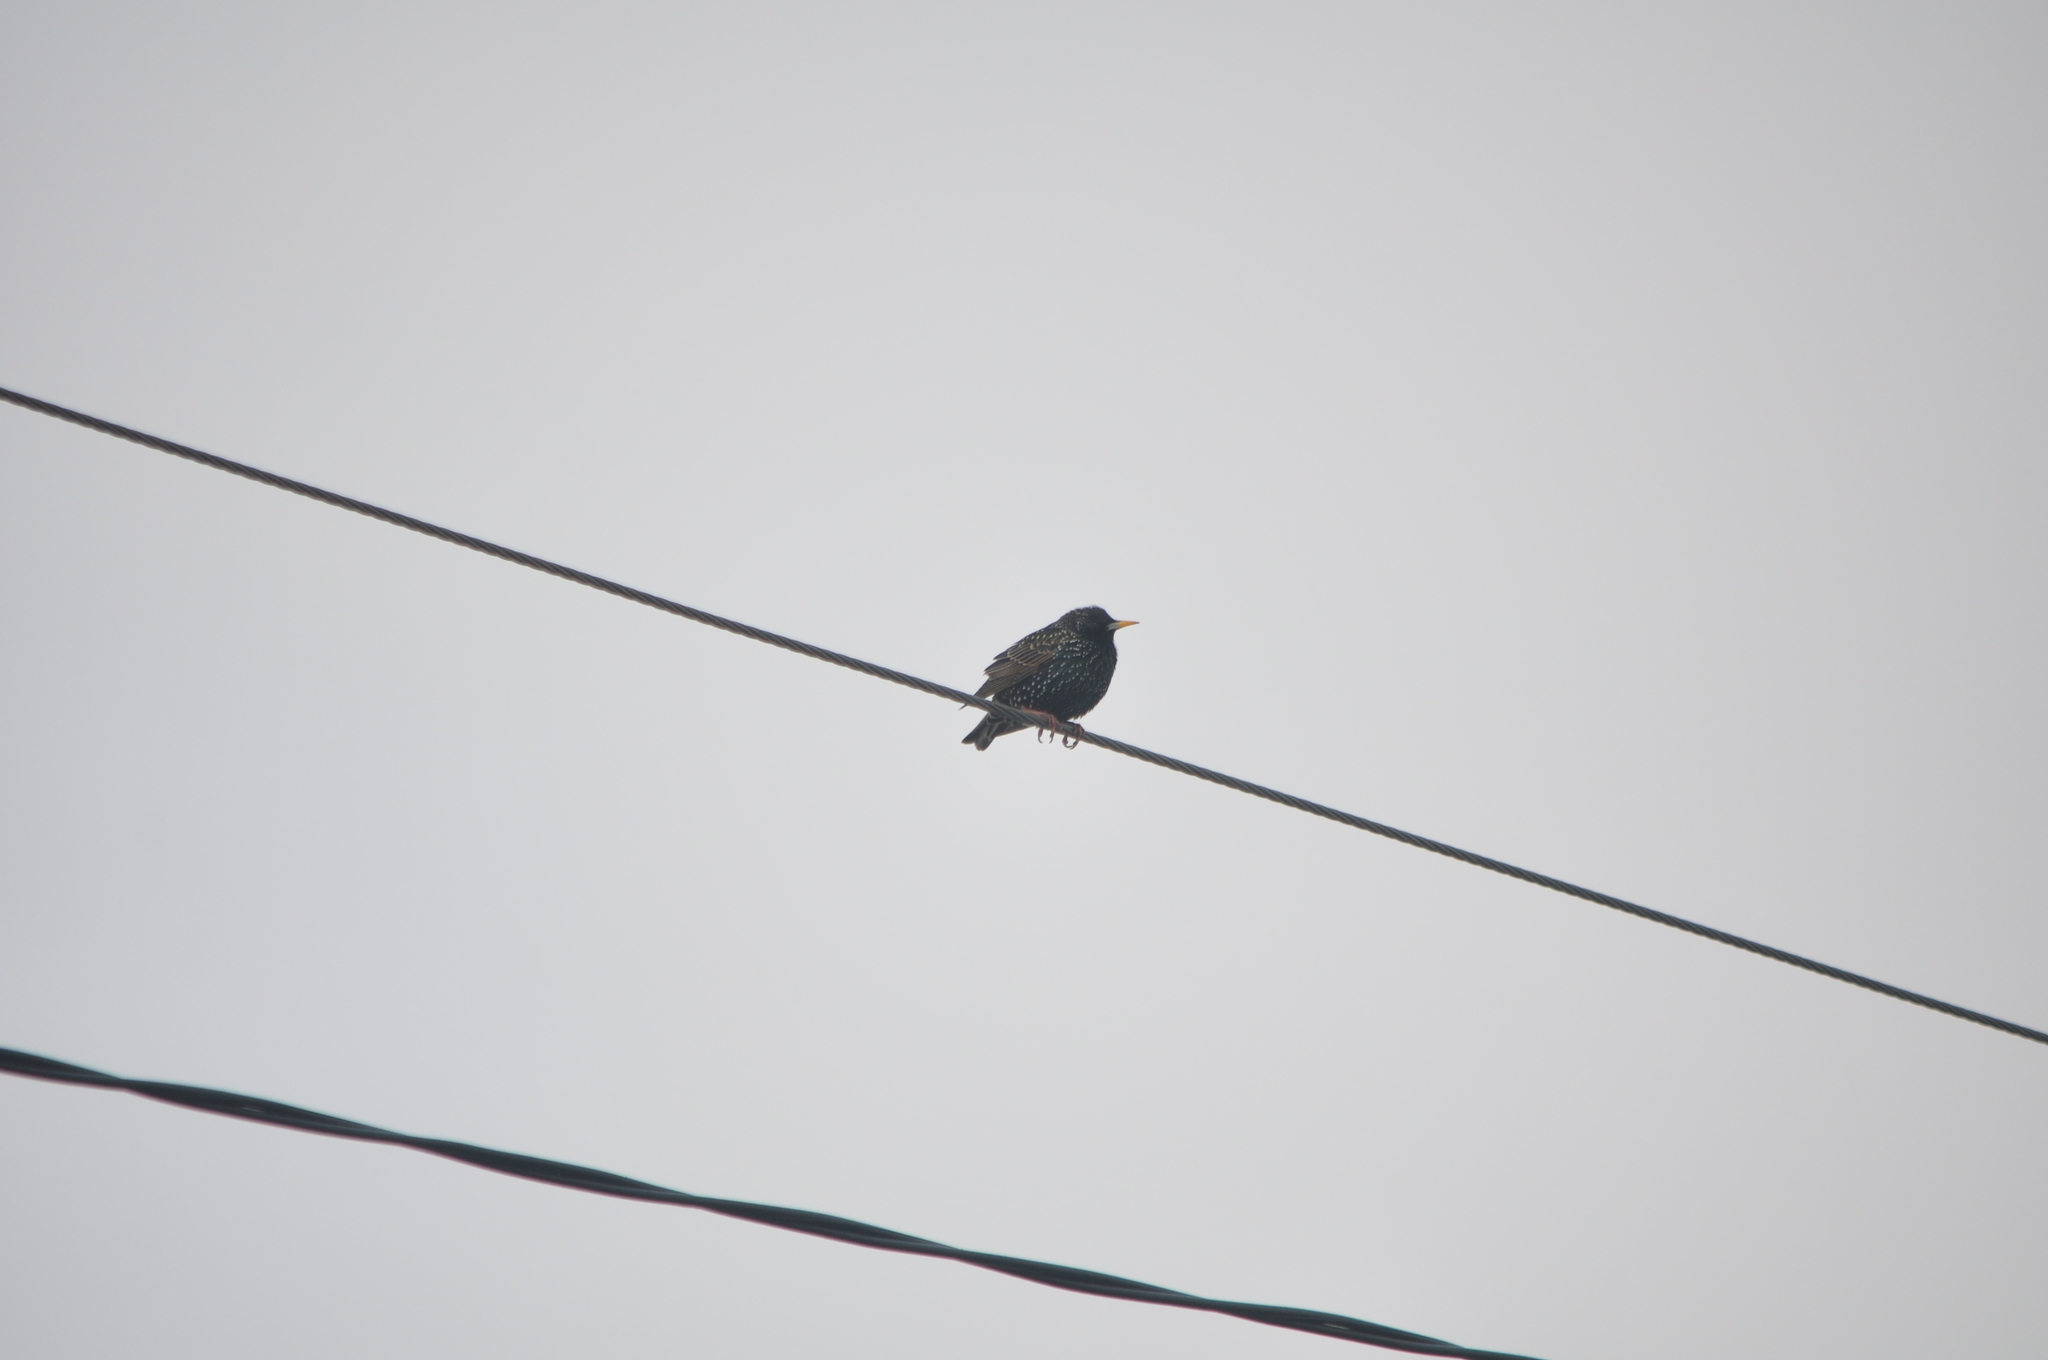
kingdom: Animalia
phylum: Chordata
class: Aves
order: Passeriformes
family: Sturnidae
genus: Sturnus
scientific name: Sturnus vulgaris
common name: Common starling
